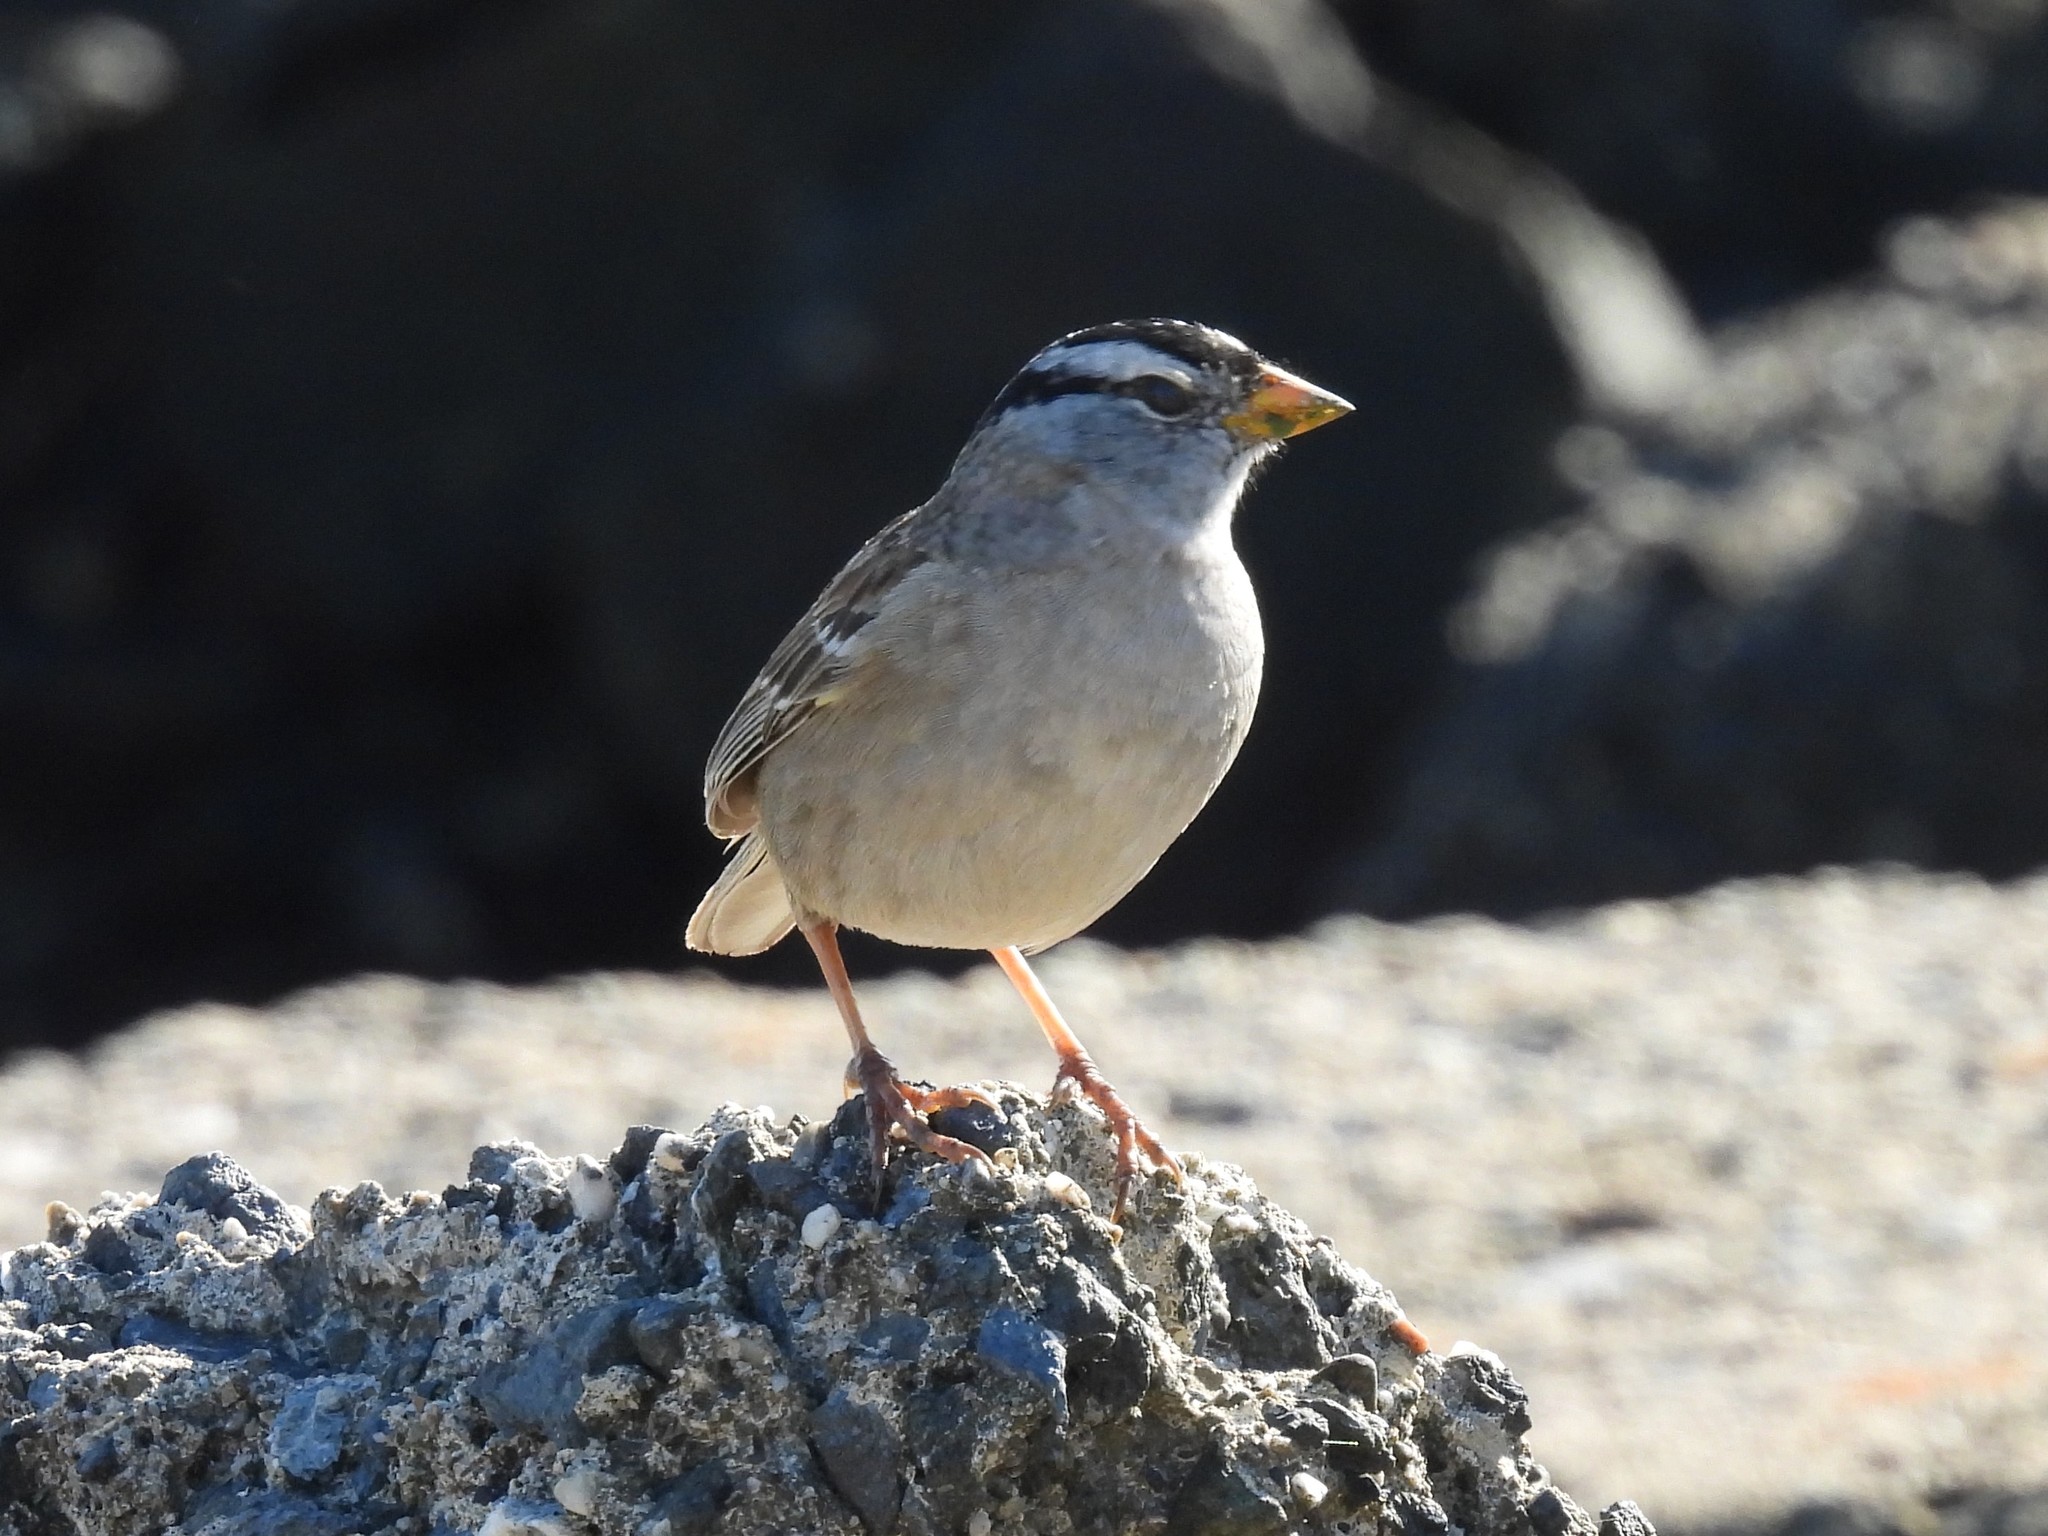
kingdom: Animalia
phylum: Chordata
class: Aves
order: Passeriformes
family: Passerellidae
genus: Zonotrichia
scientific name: Zonotrichia leucophrys
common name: White-crowned sparrow
